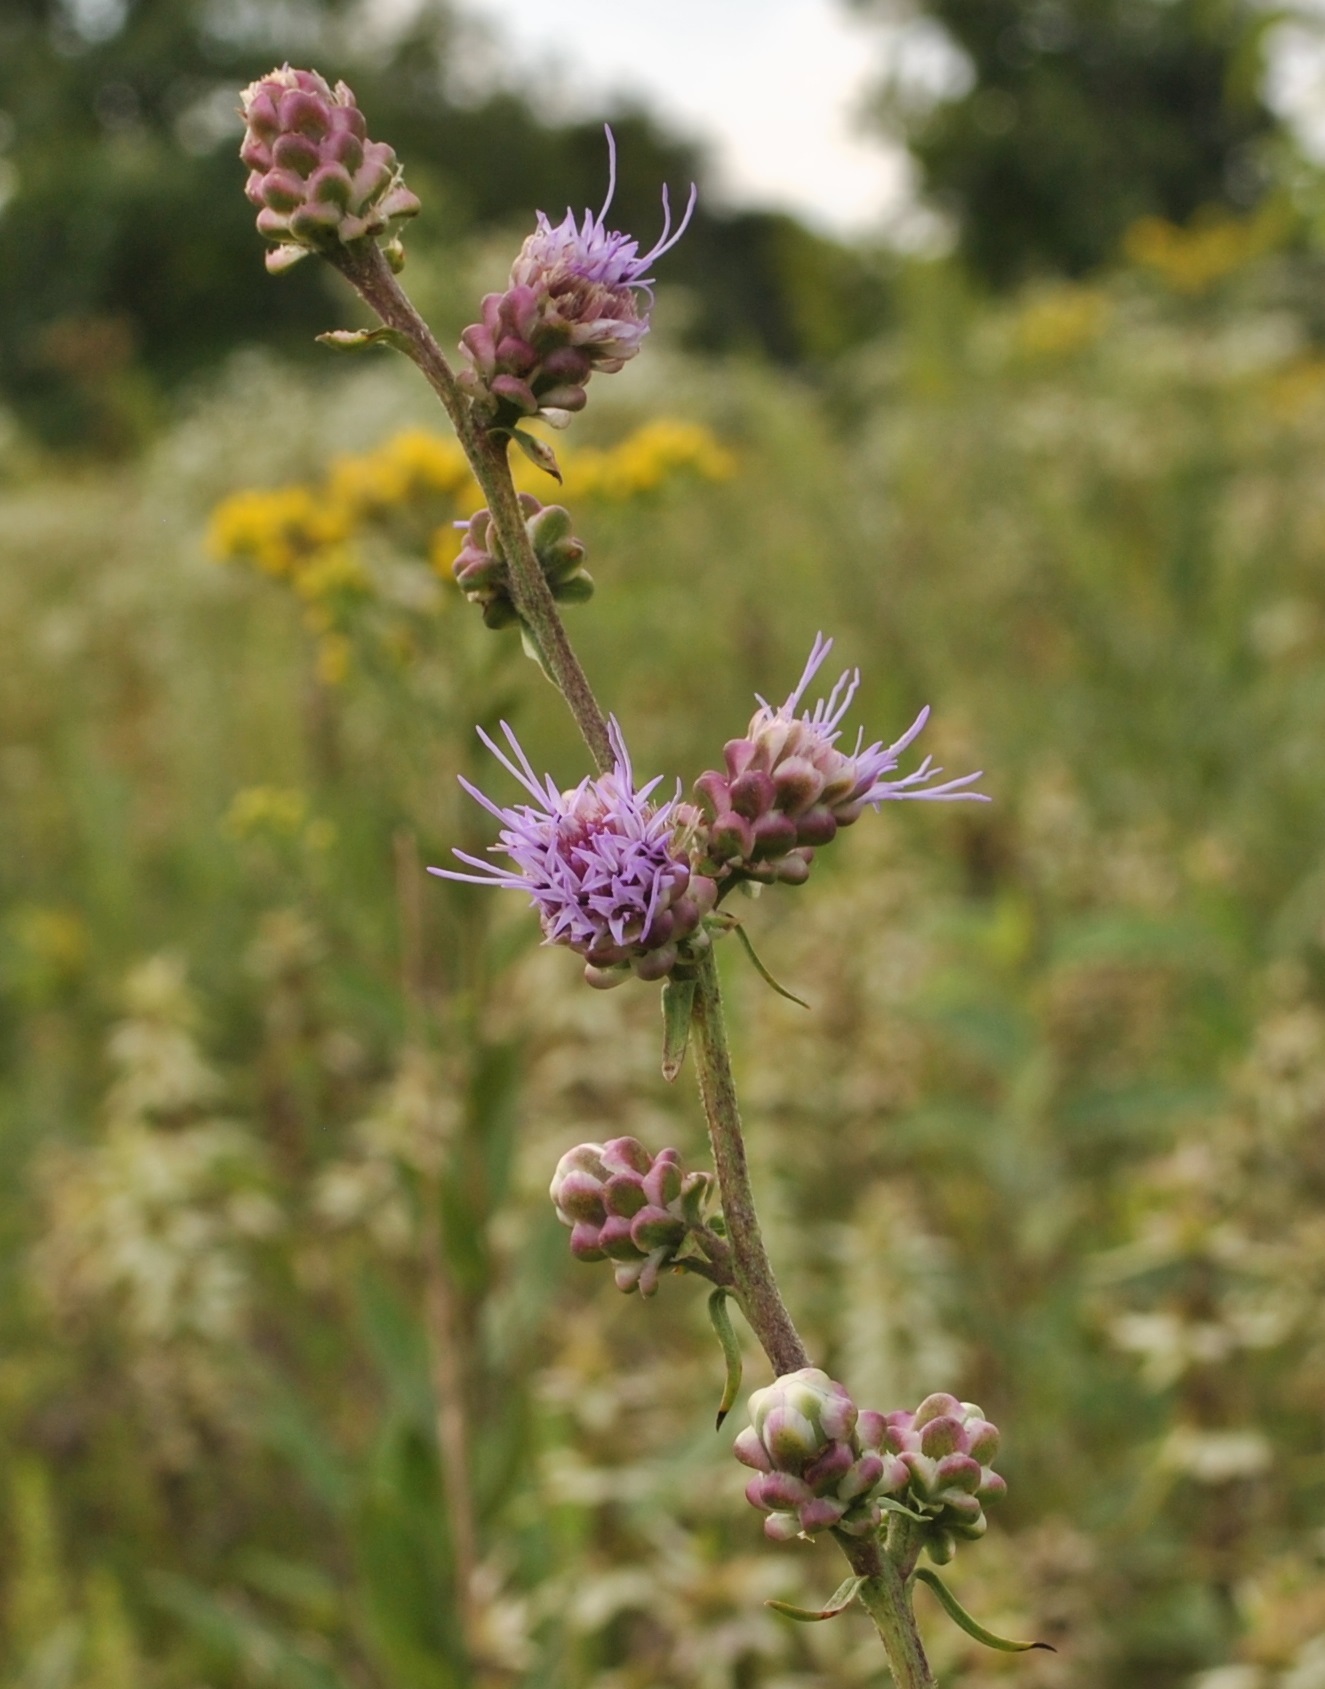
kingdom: Plantae
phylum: Tracheophyta
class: Magnoliopsida
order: Asterales
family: Asteraceae
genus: Liatris
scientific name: Liatris aspera
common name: Lacerate blazing-star
